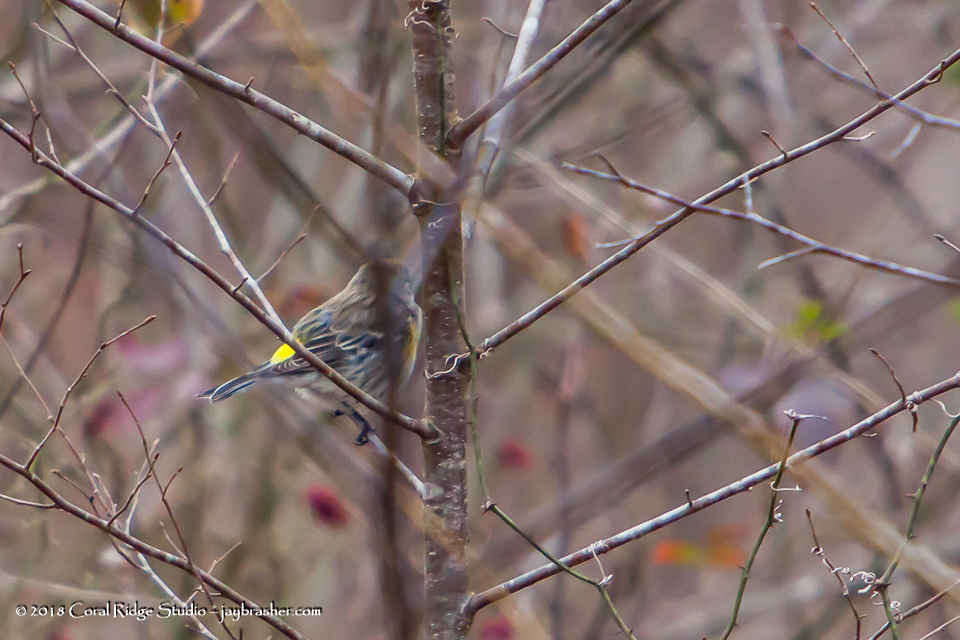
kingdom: Animalia
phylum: Chordata
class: Aves
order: Passeriformes
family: Parulidae
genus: Setophaga
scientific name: Setophaga coronata
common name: Myrtle warbler
